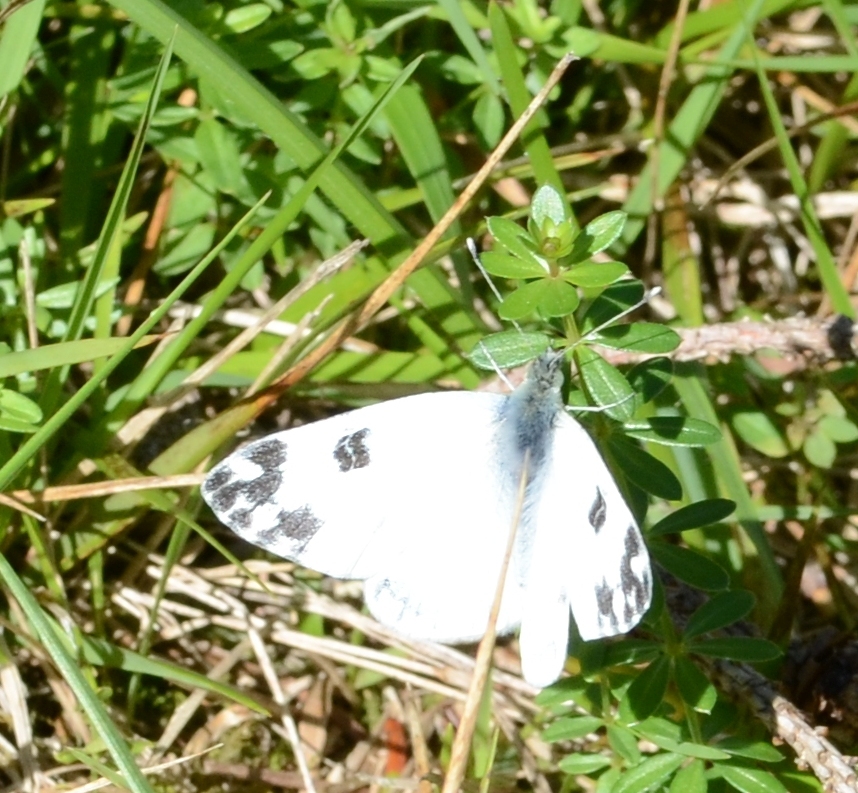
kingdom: Animalia
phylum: Arthropoda
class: Insecta
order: Lepidoptera
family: Pieridae
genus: Pontia
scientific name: Pontia edusa
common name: Eastern bath white
